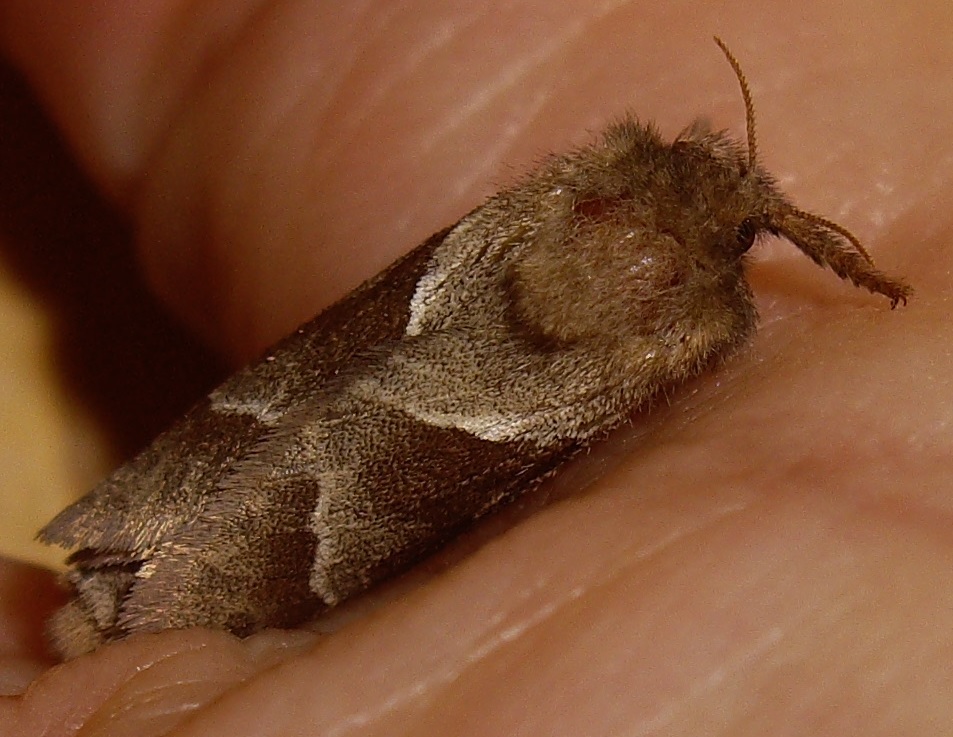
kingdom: Animalia
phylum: Arthropoda
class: Insecta
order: Lepidoptera
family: Hepialidae
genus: Triodia
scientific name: Triodia sylvina
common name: Orange swift
